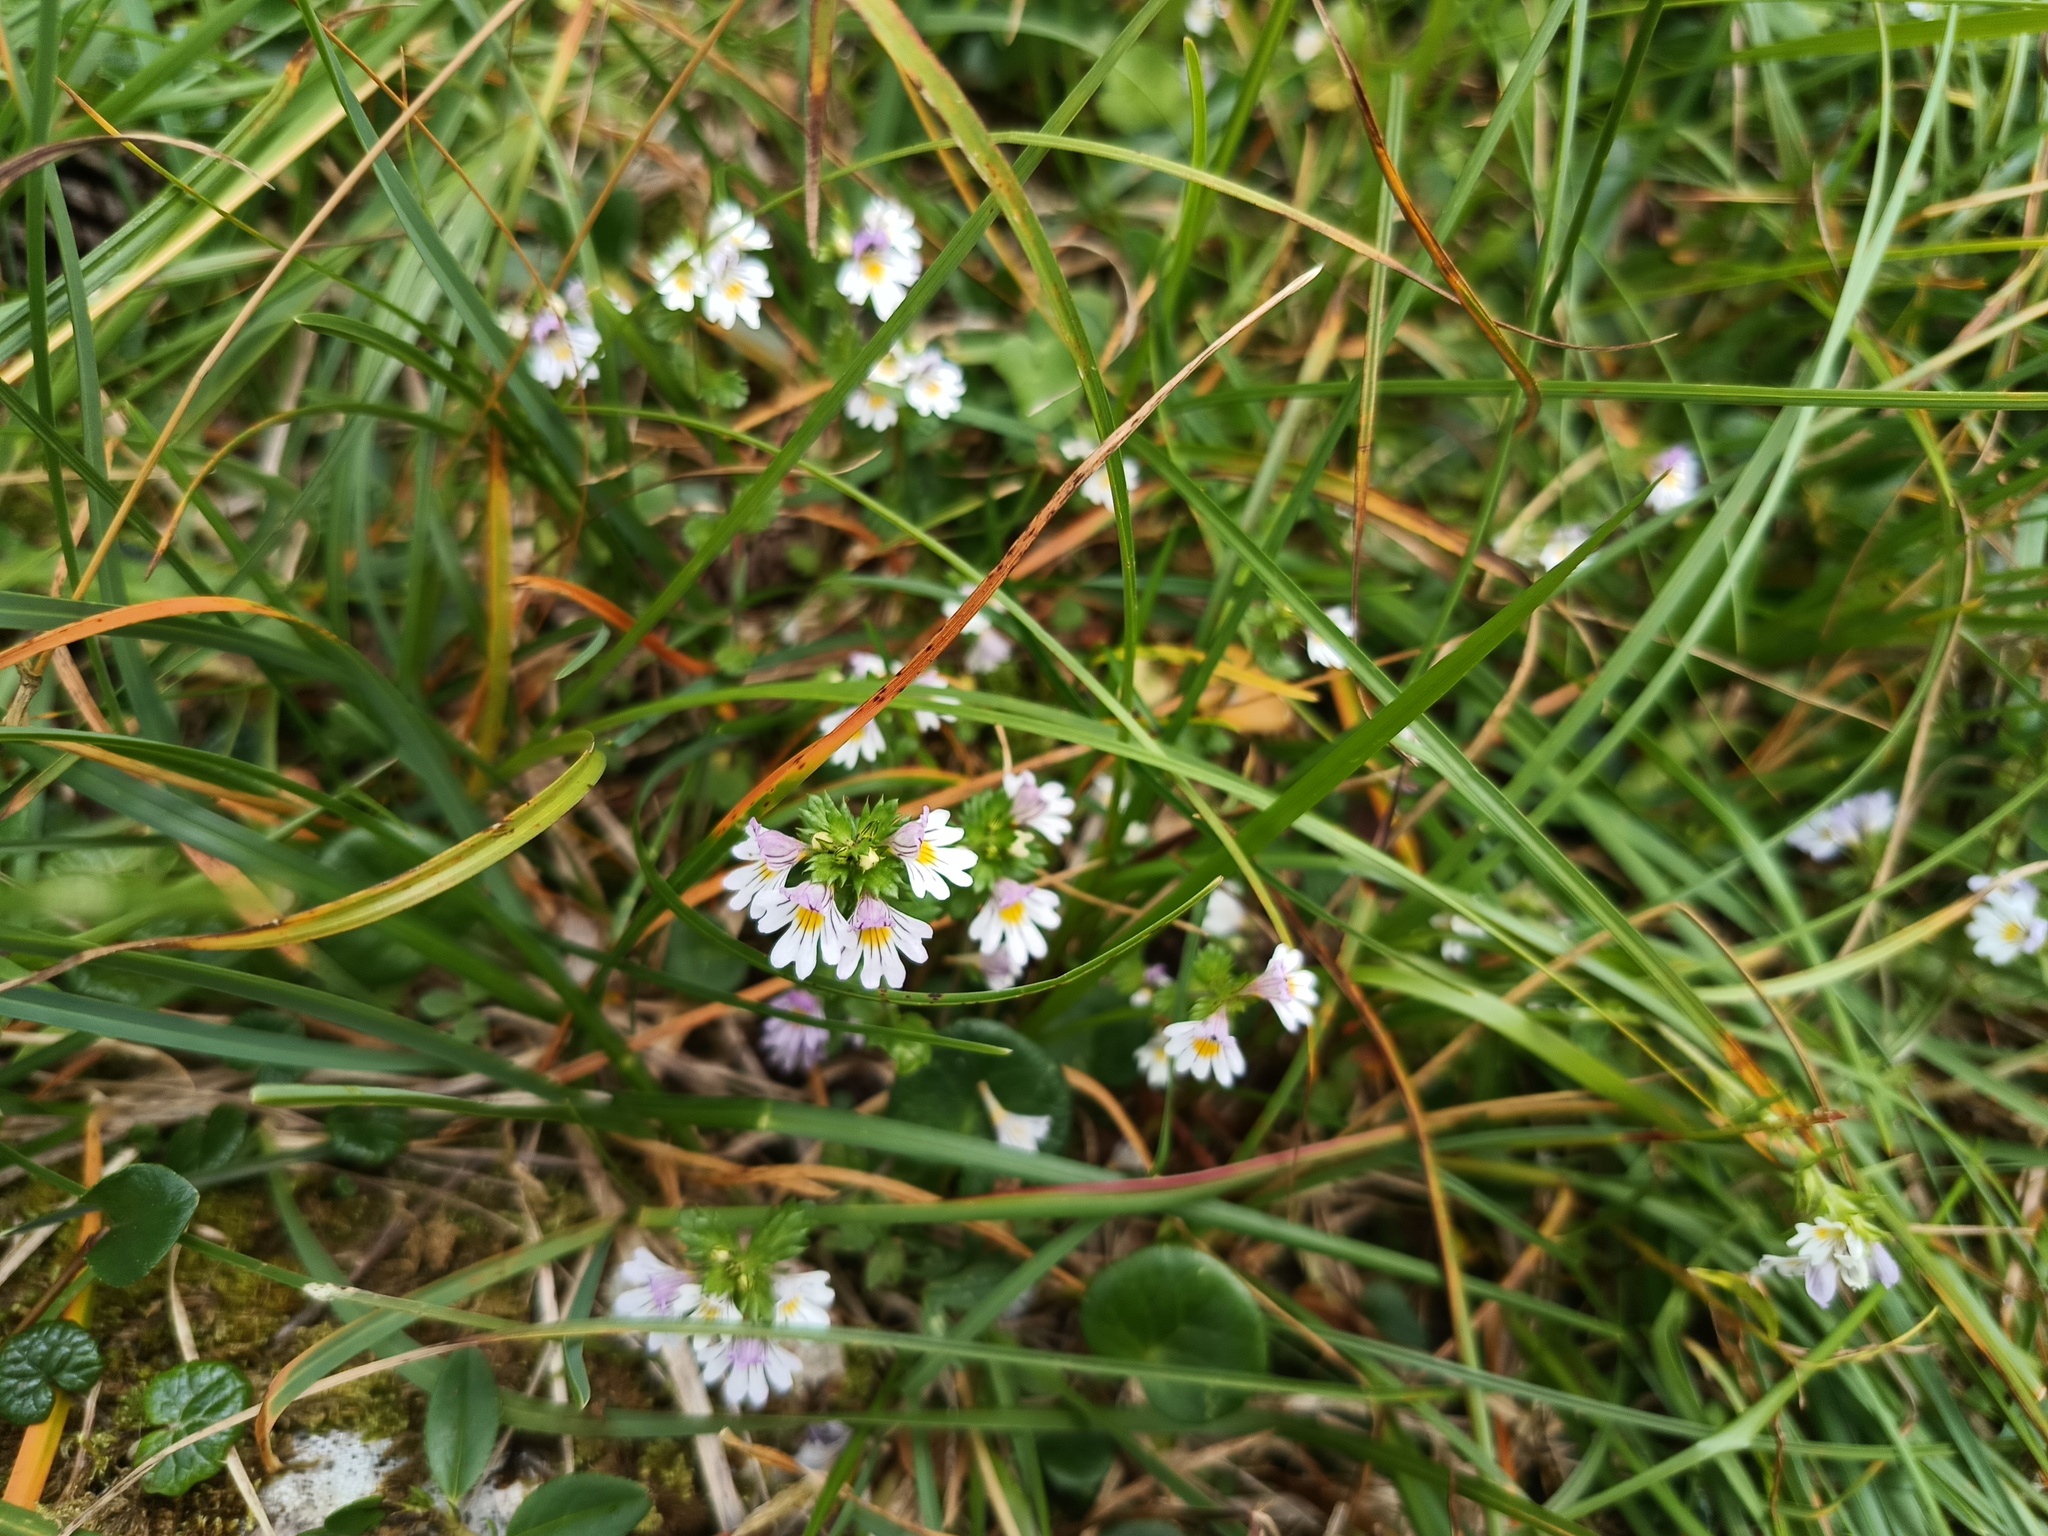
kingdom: Plantae
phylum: Tracheophyta
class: Magnoliopsida
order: Lamiales
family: Orobanchaceae
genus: Euphrasia
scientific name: Euphrasia officinalis
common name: Eyebright
